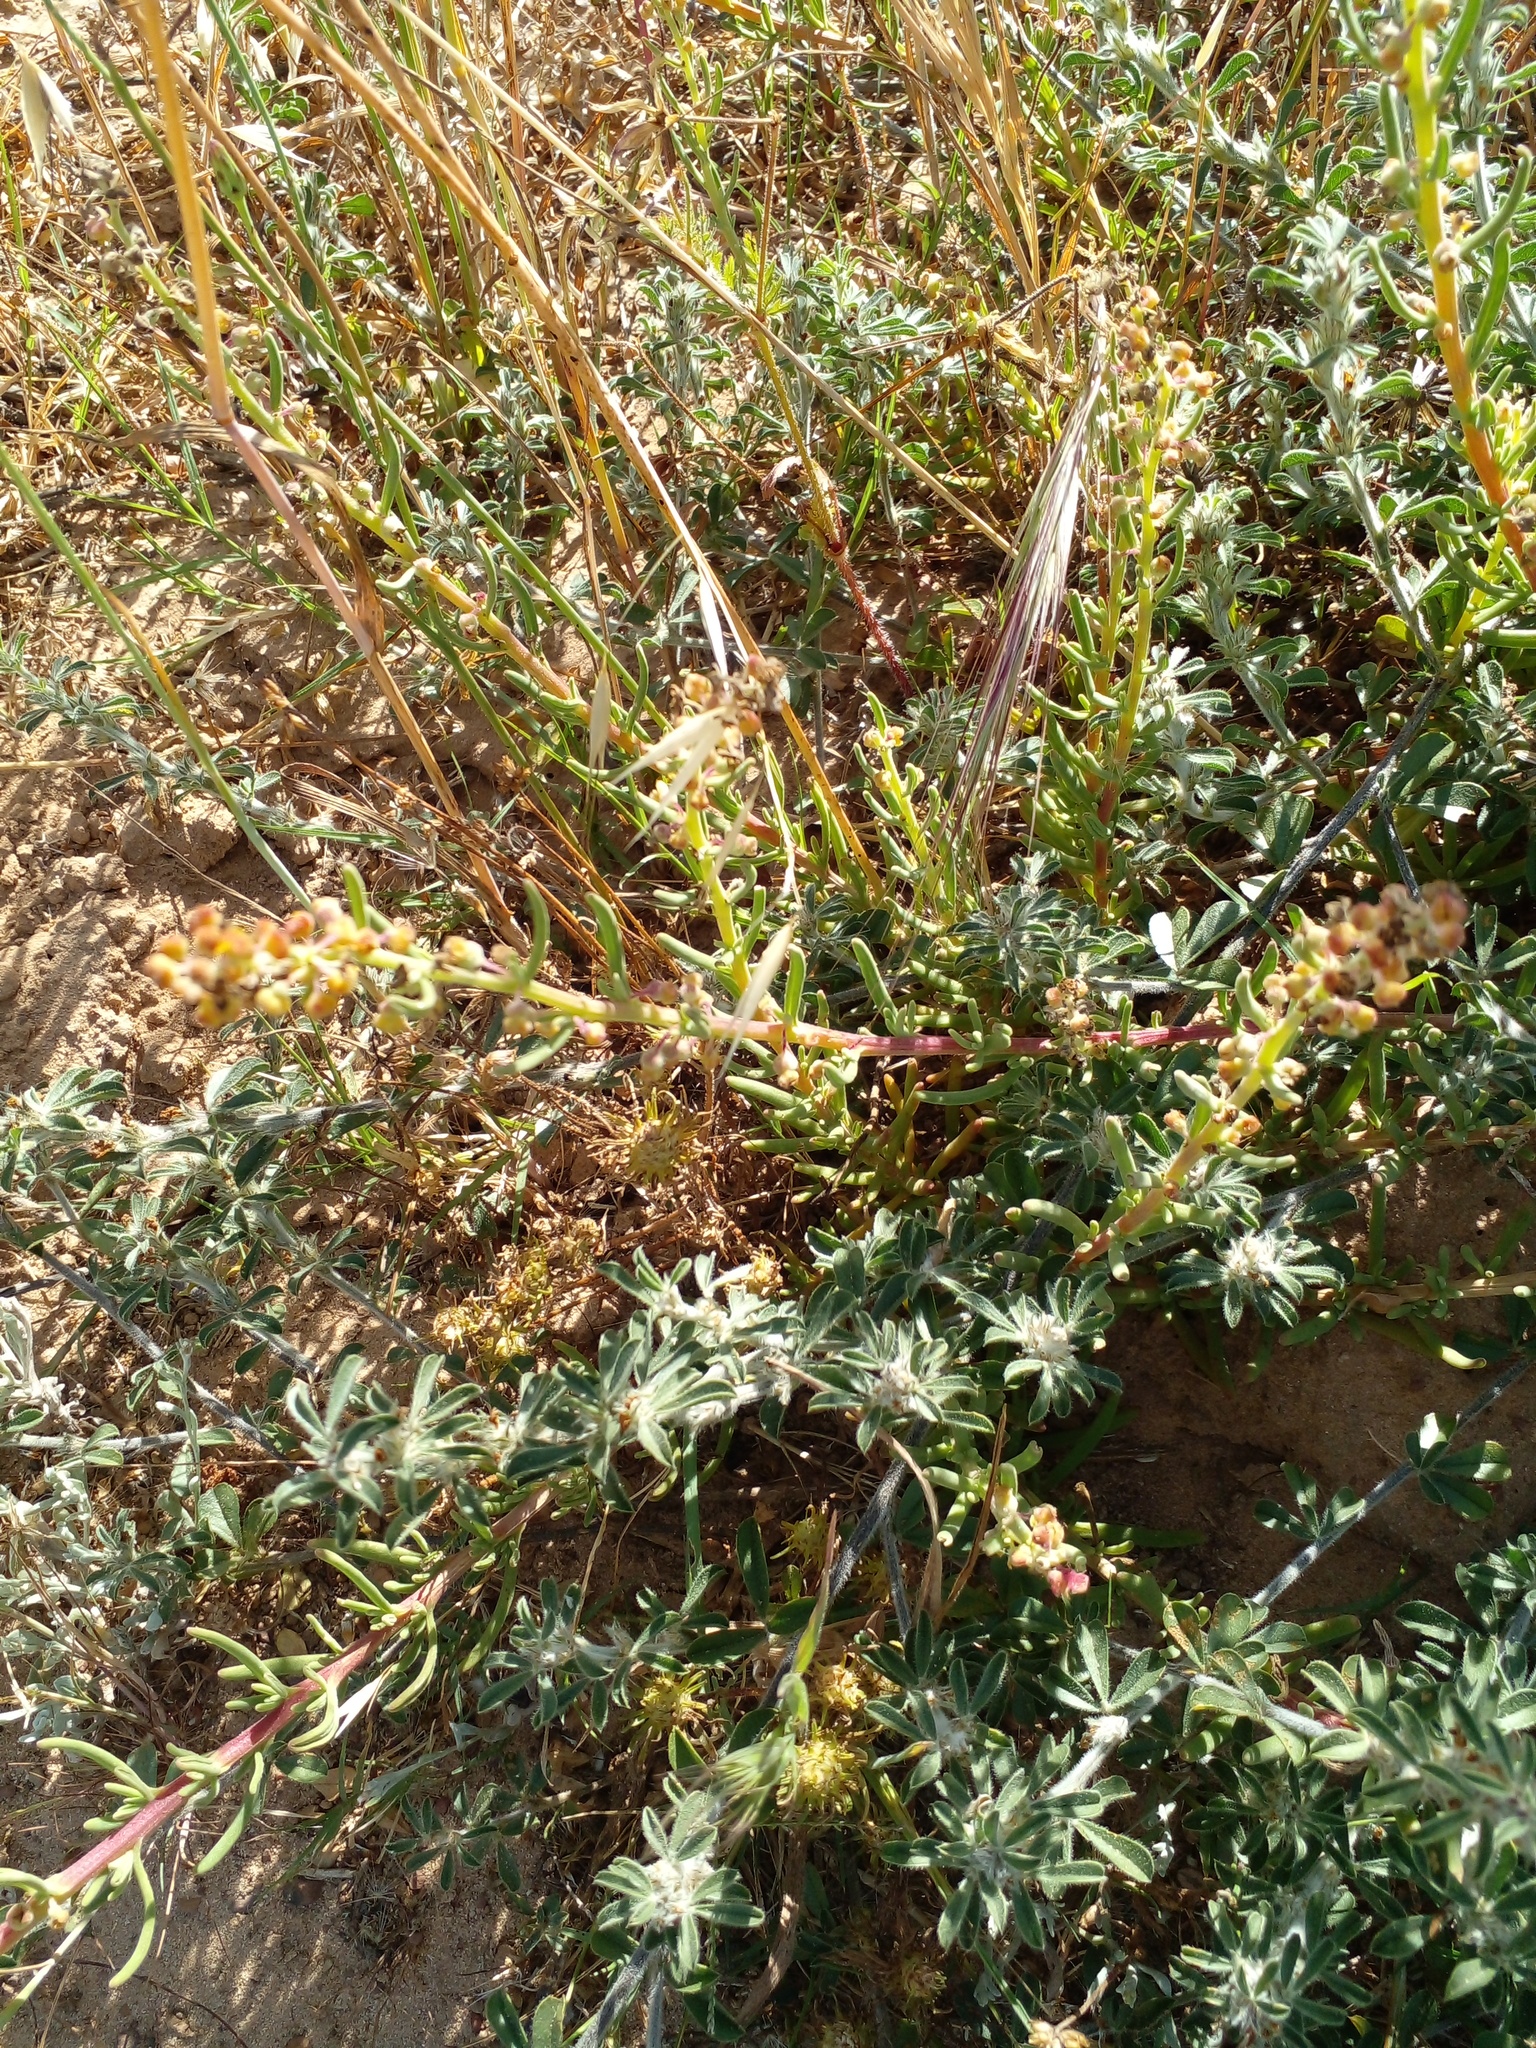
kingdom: Plantae
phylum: Tracheophyta
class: Magnoliopsida
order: Caryophyllales
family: Aizoaceae
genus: Tetragonia
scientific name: Tetragonia fruticosa
